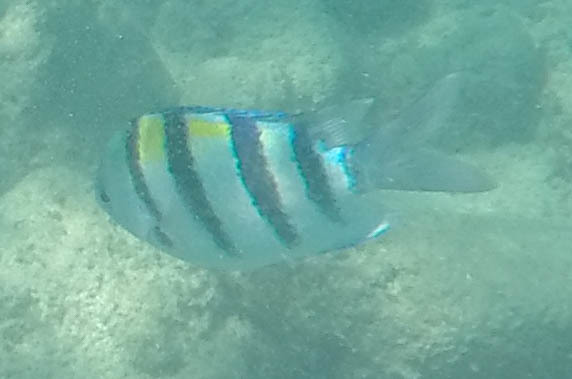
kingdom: Animalia
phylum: Chordata
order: Perciformes
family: Pomacentridae
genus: Abudefduf
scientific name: Abudefduf vaigiensis
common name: Indo-pacific sergeant
